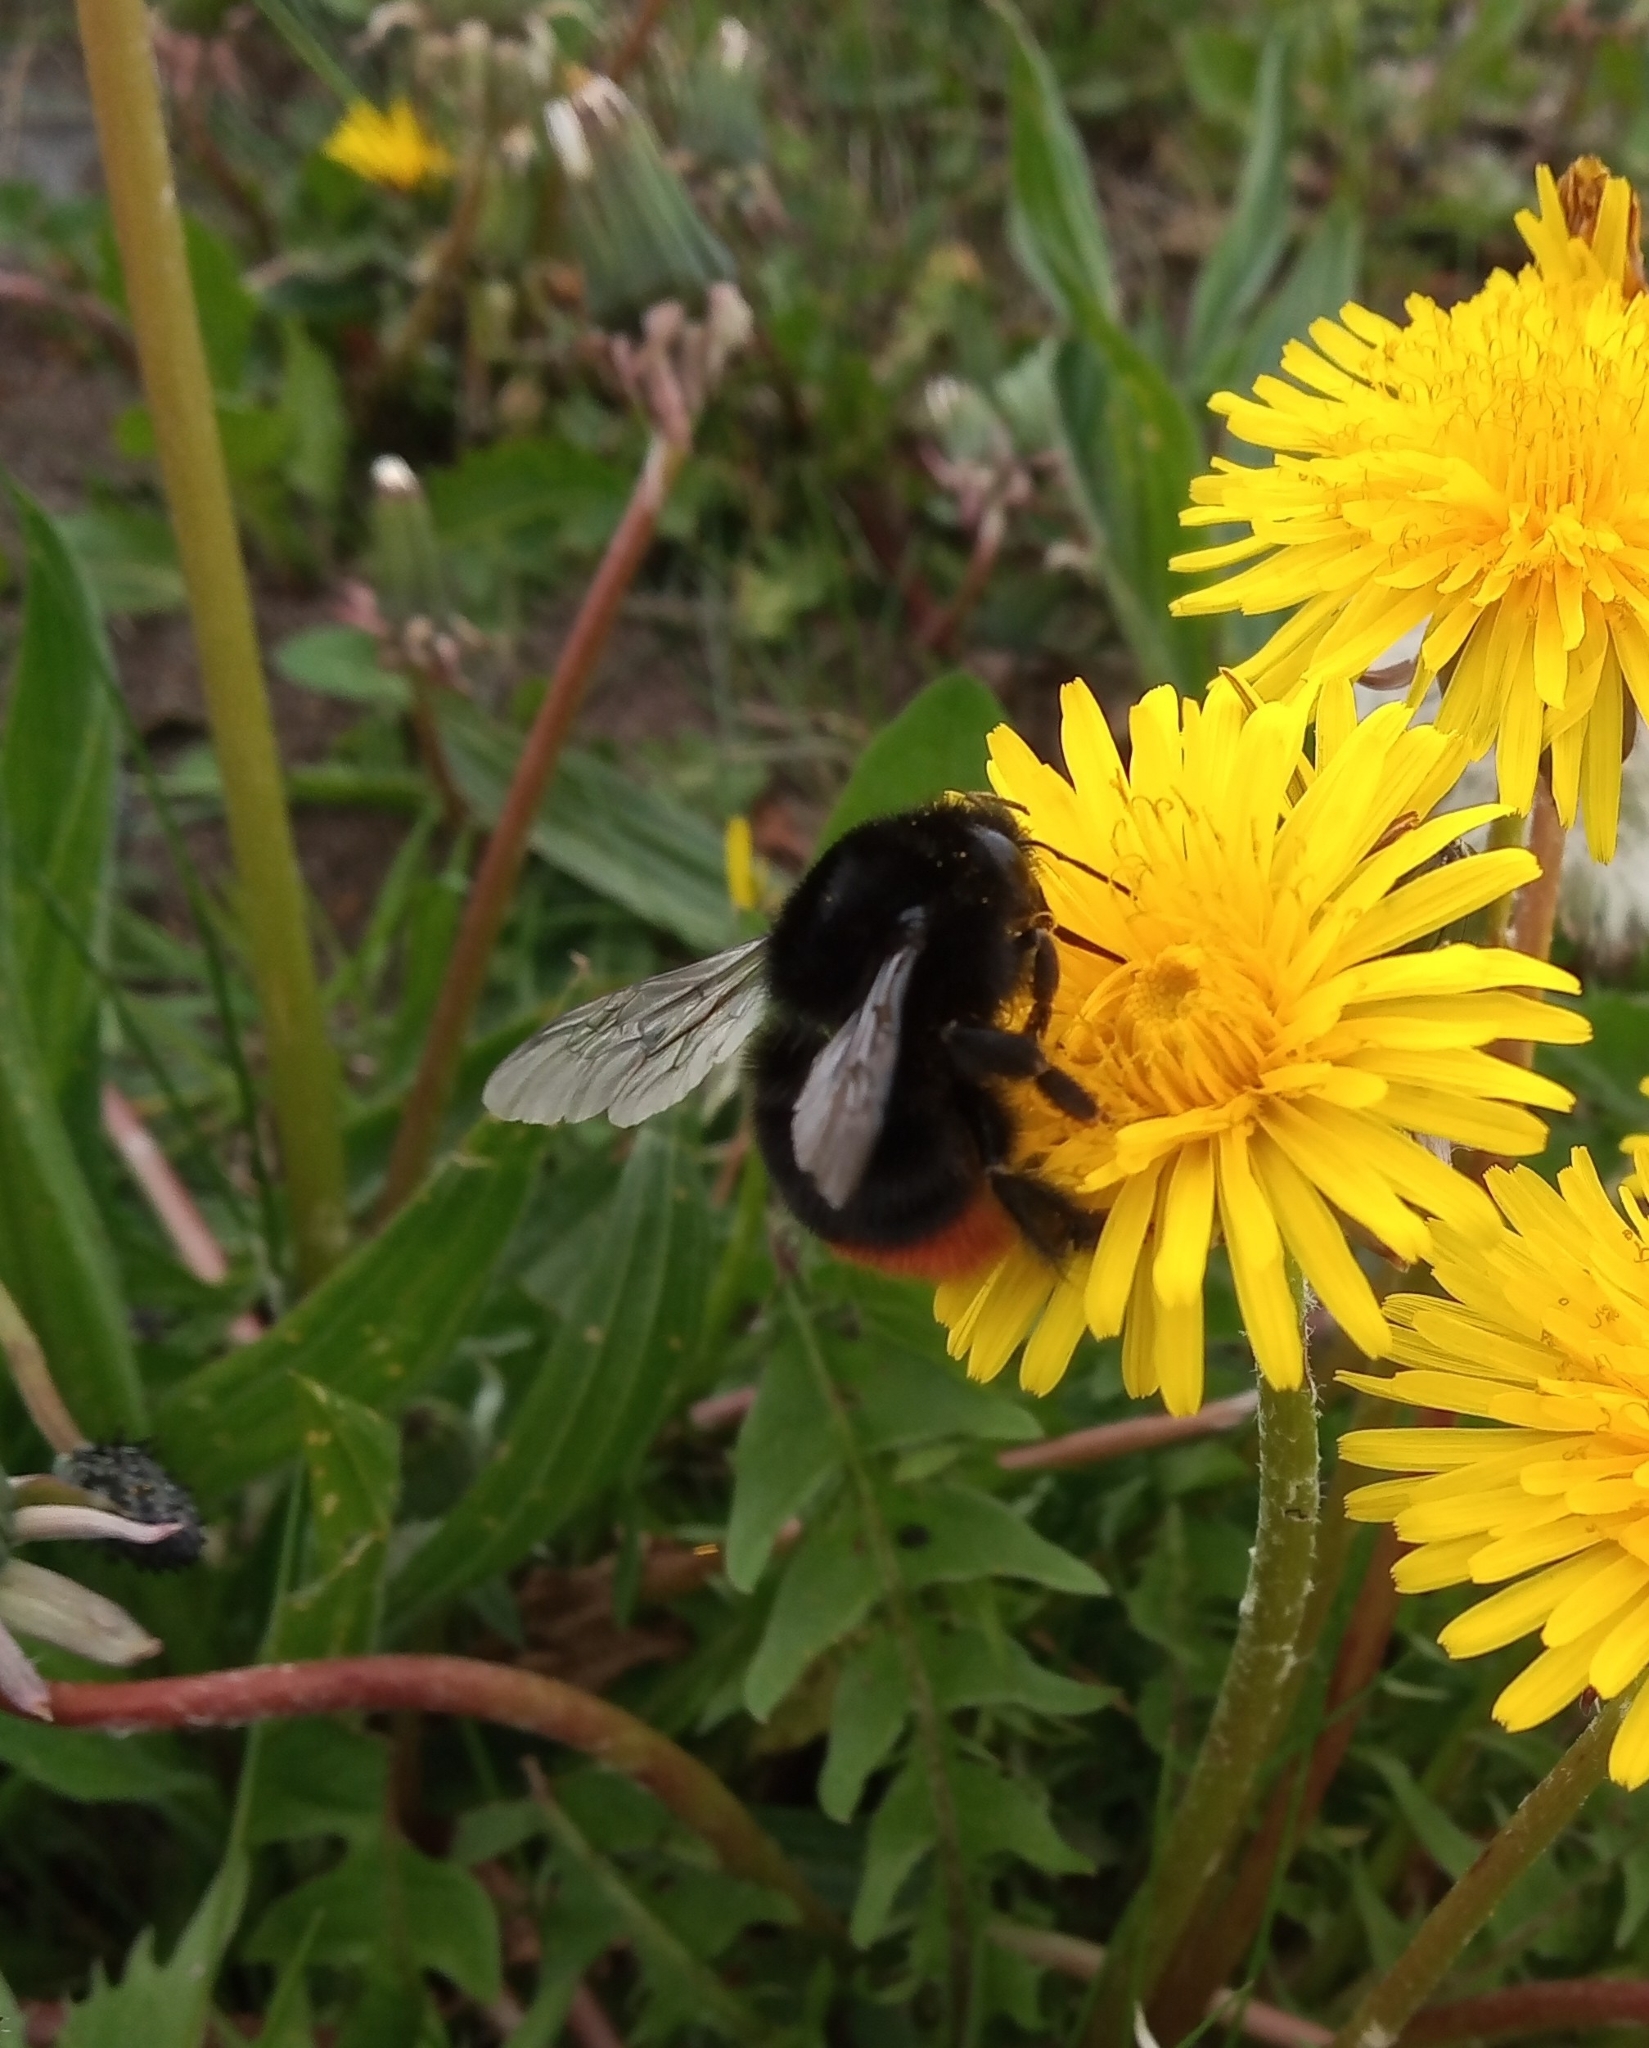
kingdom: Animalia
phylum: Arthropoda
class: Insecta
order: Hymenoptera
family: Apidae
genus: Bombus
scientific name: Bombus lapidarius
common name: Large red-tailed humble-bee
